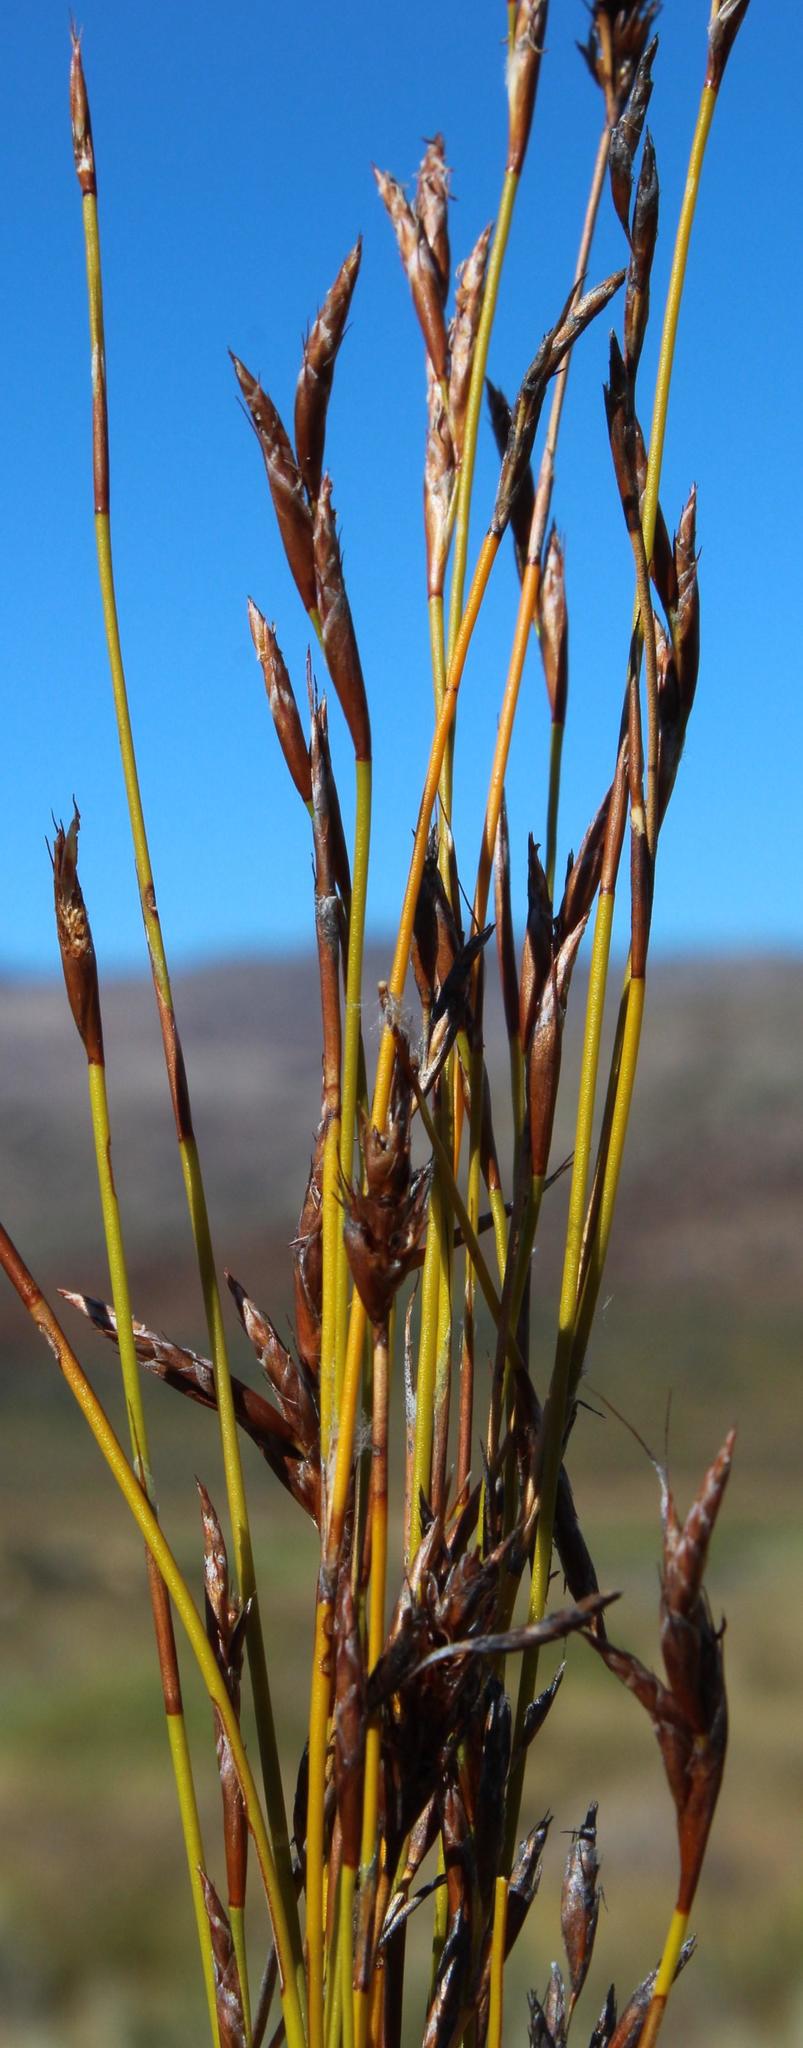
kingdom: Plantae
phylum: Tracheophyta
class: Liliopsida
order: Poales
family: Restionaceae
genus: Restio
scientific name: Restio gossypinus
